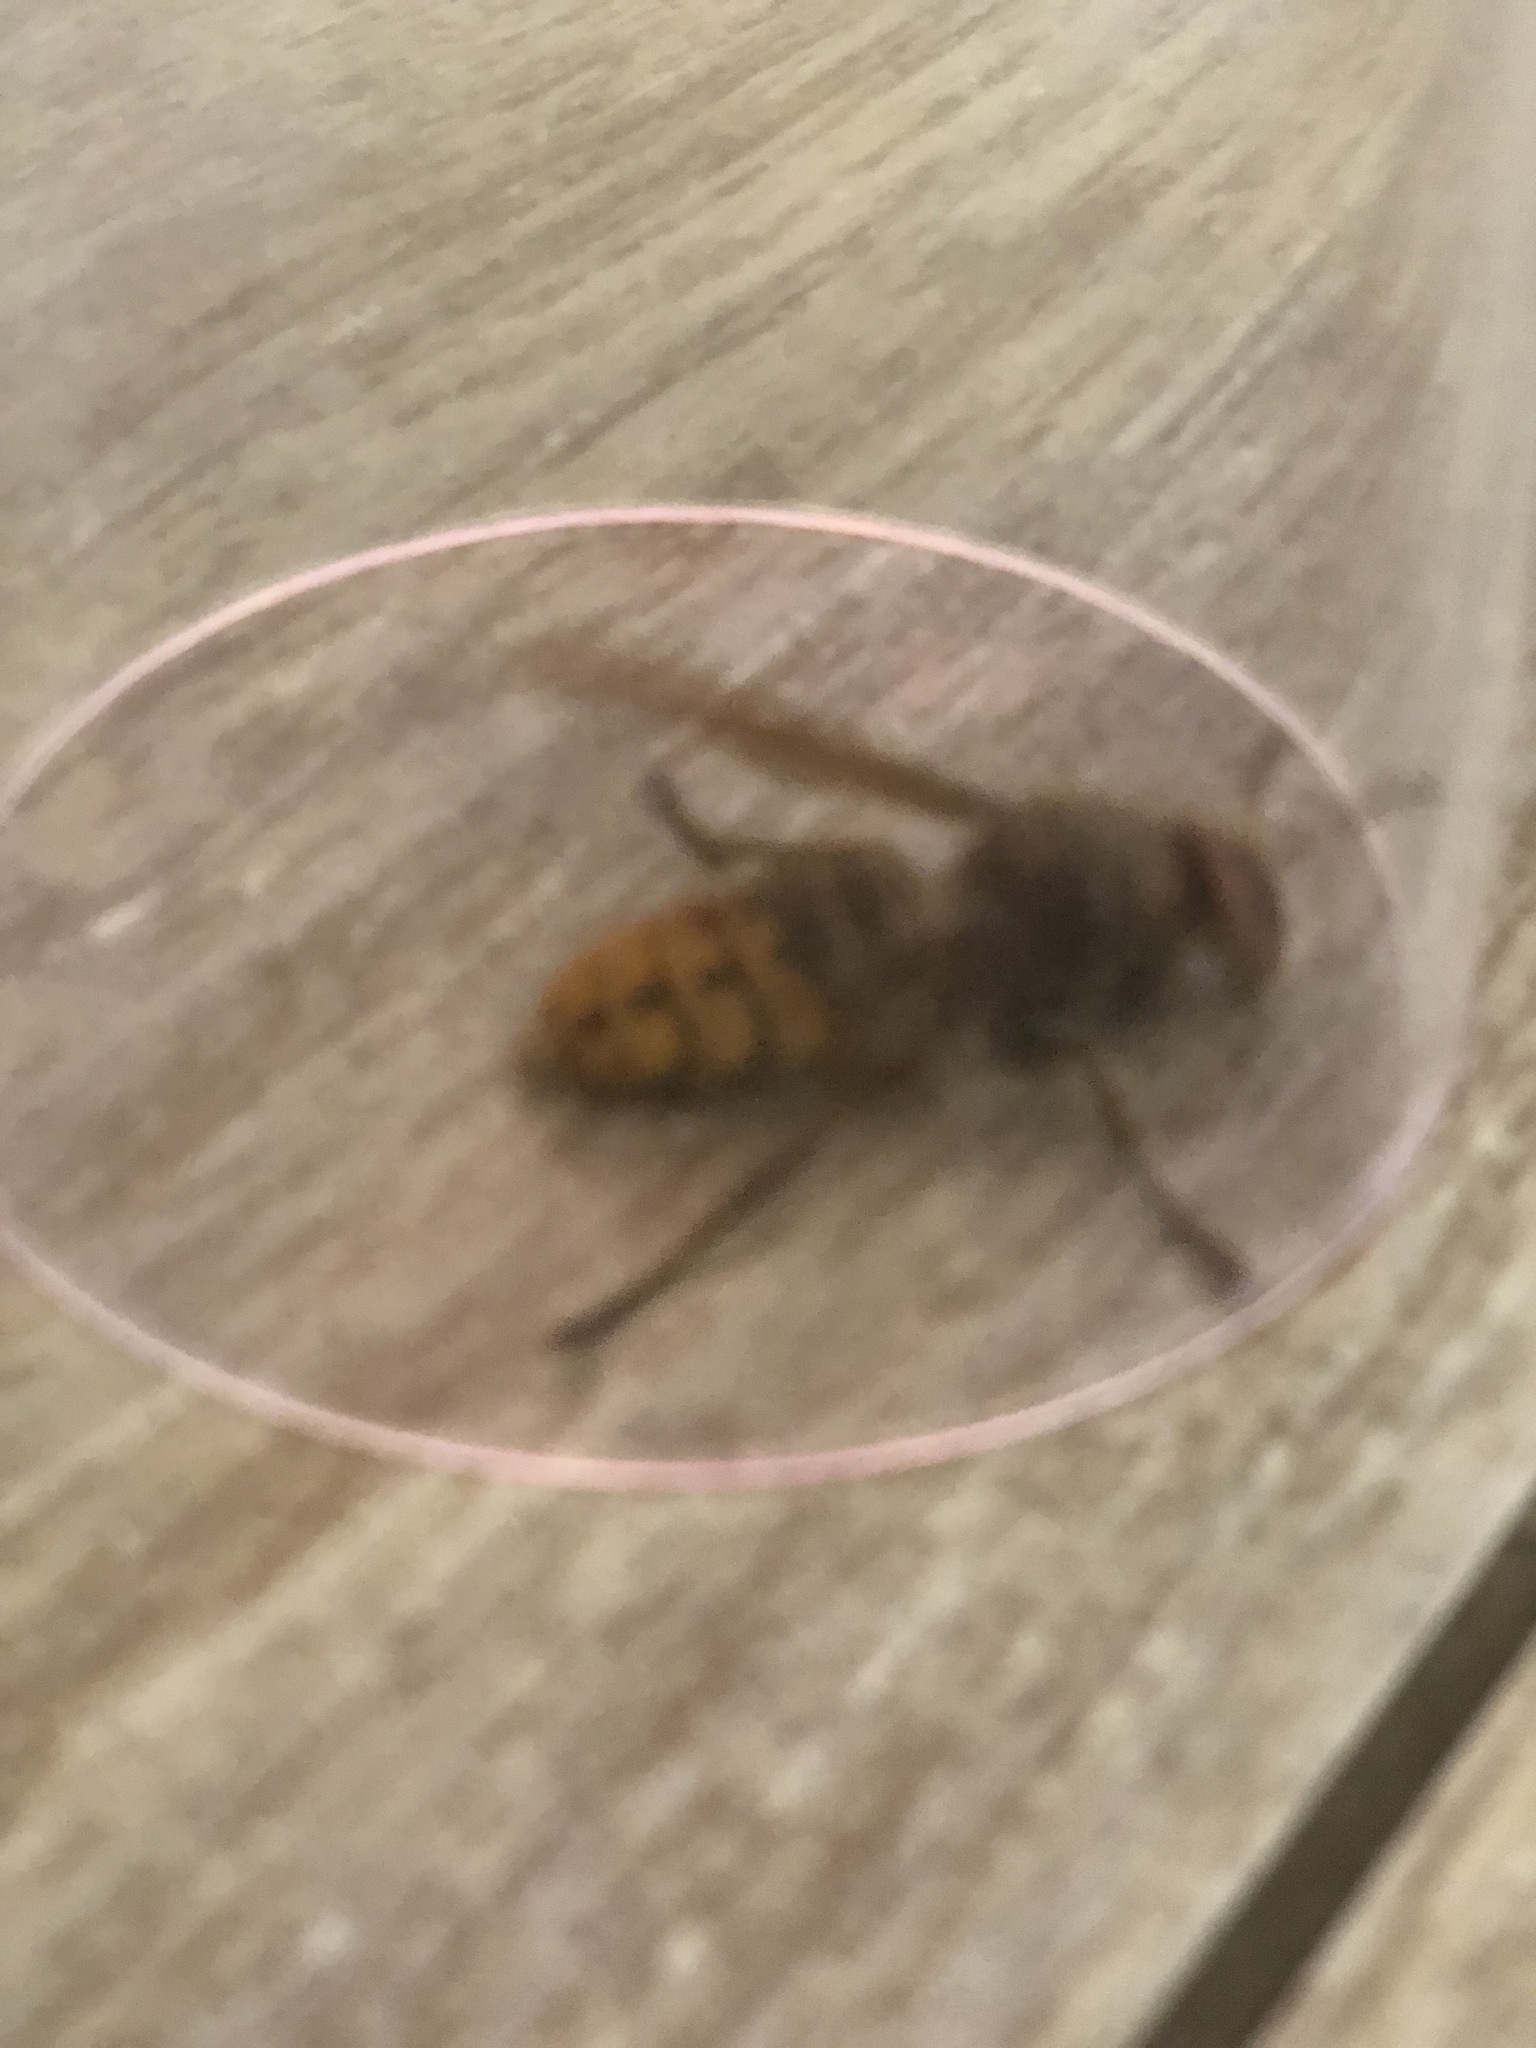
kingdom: Animalia
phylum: Arthropoda
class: Insecta
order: Hymenoptera
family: Vespidae
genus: Vespa
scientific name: Vespa crabro
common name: Hornet
